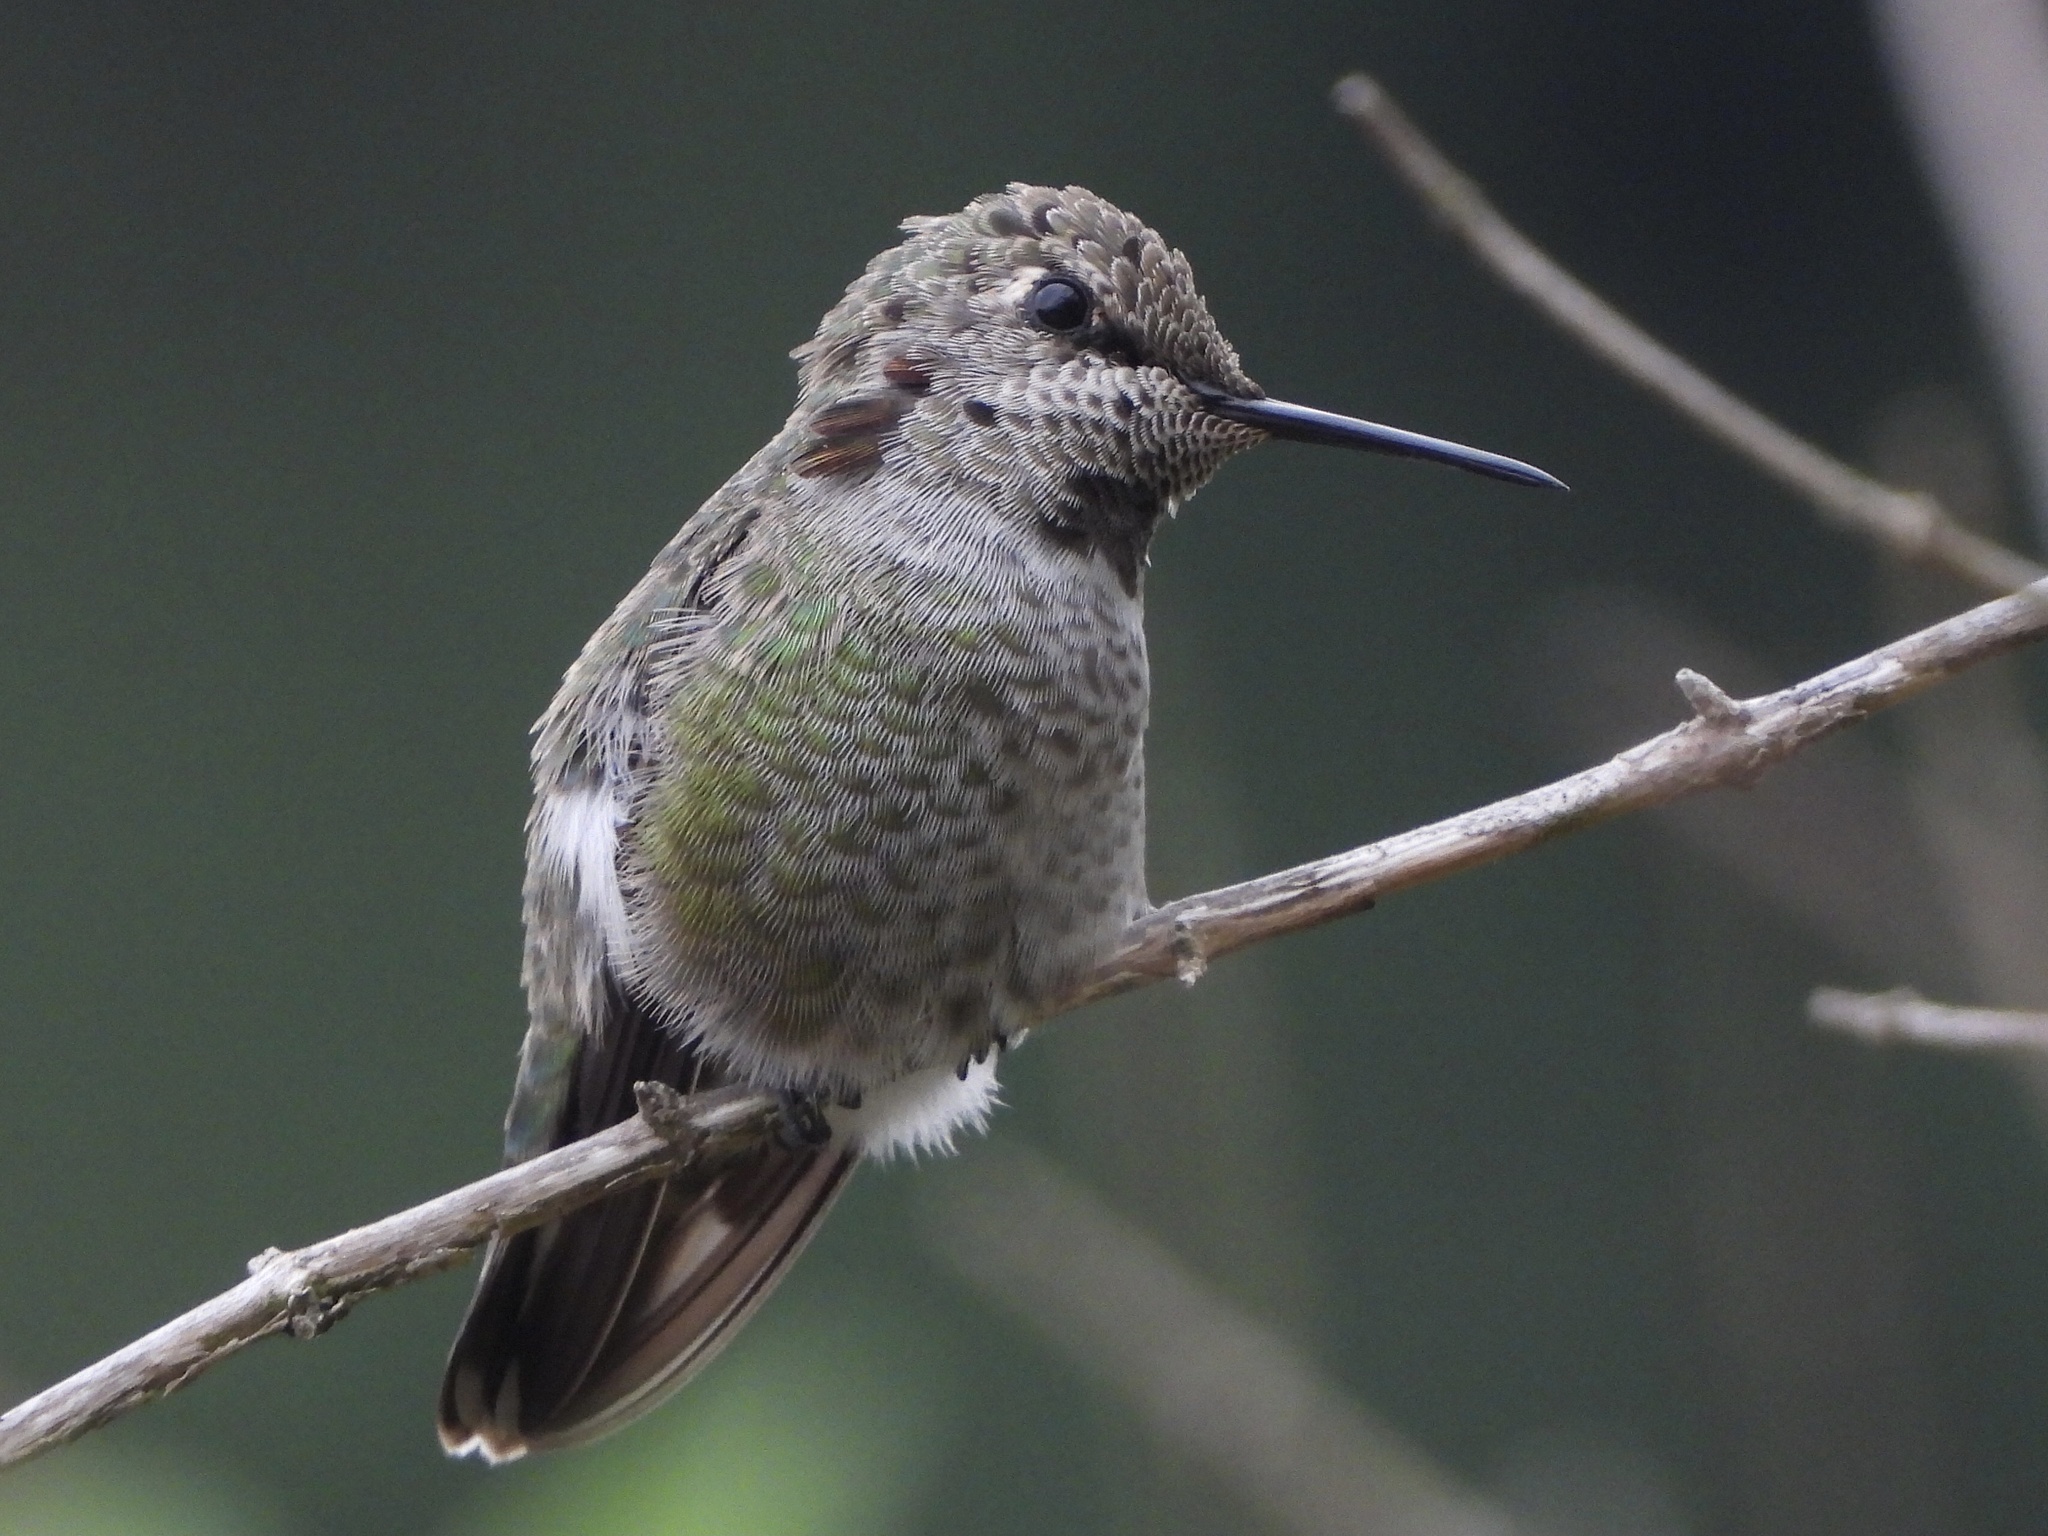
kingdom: Animalia
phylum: Chordata
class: Aves
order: Apodiformes
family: Trochilidae
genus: Calypte
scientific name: Calypte anna
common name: Anna's hummingbird
